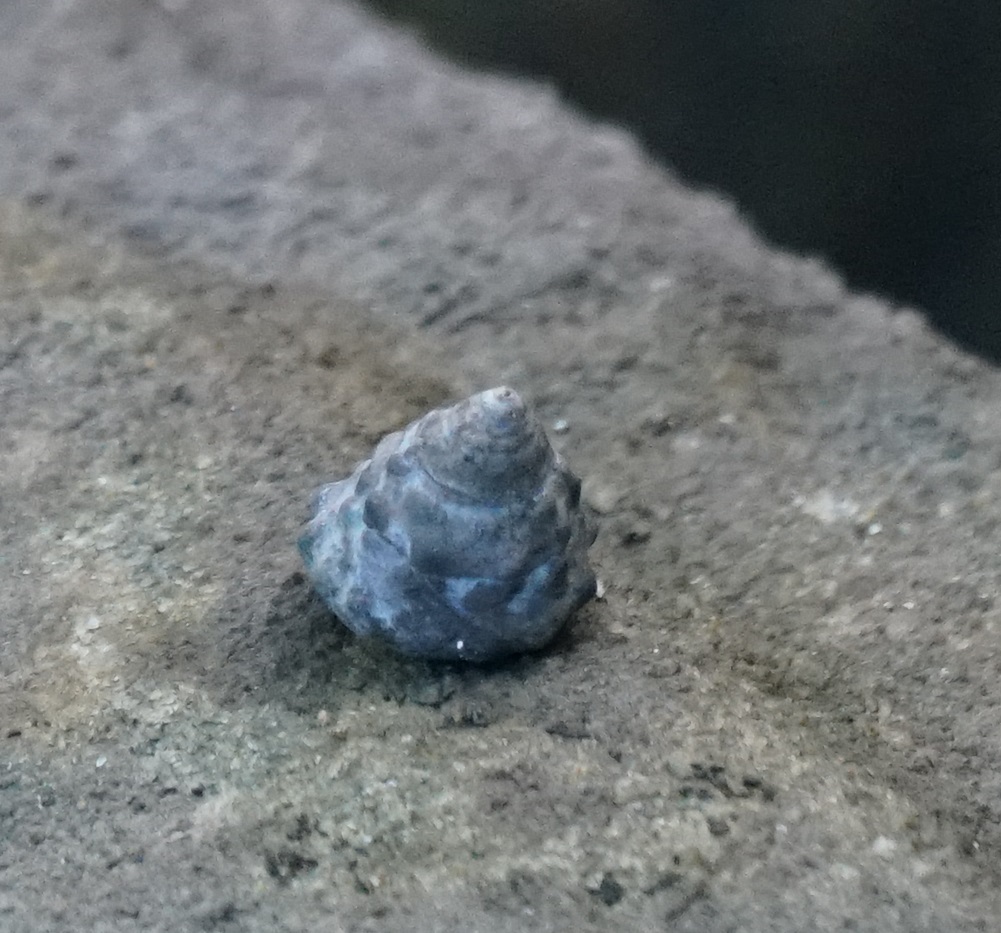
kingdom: Animalia
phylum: Mollusca
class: Gastropoda
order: Littorinimorpha
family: Littorinidae
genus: Bembicium
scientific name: Bembicium auratum
